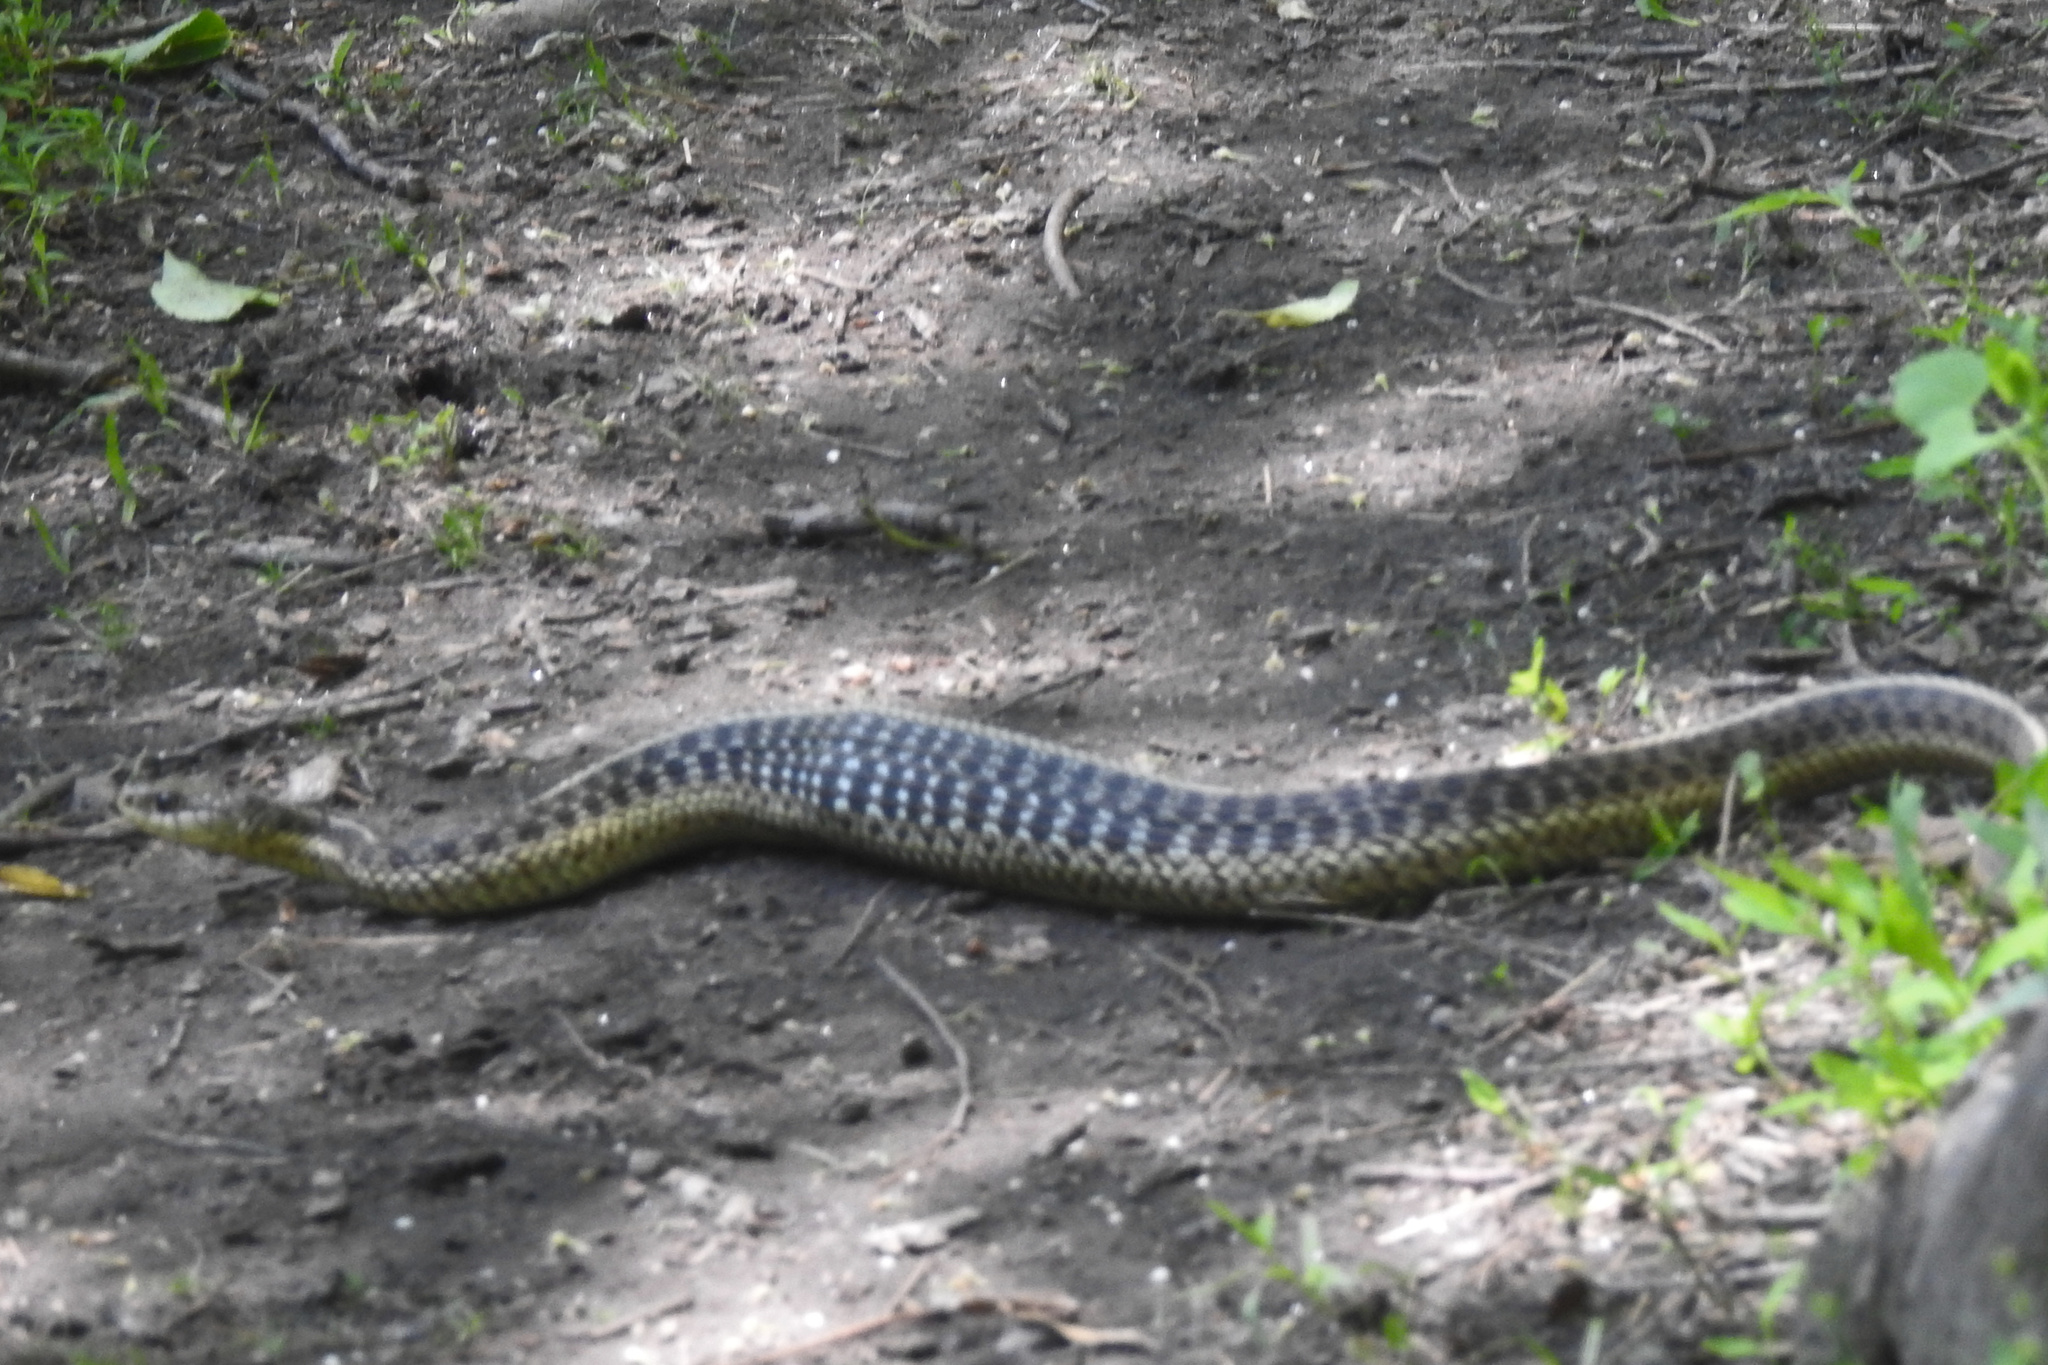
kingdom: Animalia
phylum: Chordata
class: Squamata
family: Colubridae
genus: Thamnophis
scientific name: Thamnophis sirtalis
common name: Common garter snake
